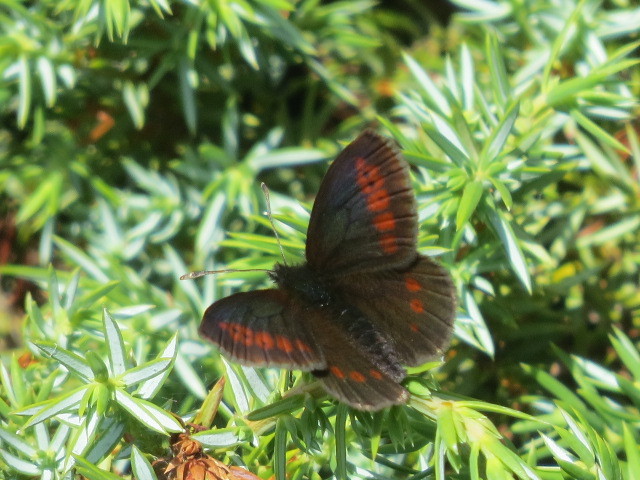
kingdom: Animalia
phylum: Arthropoda
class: Insecta
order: Lepidoptera
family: Nymphalidae
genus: Erebia
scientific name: Erebia melampus
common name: Lesser mountain ringlet
